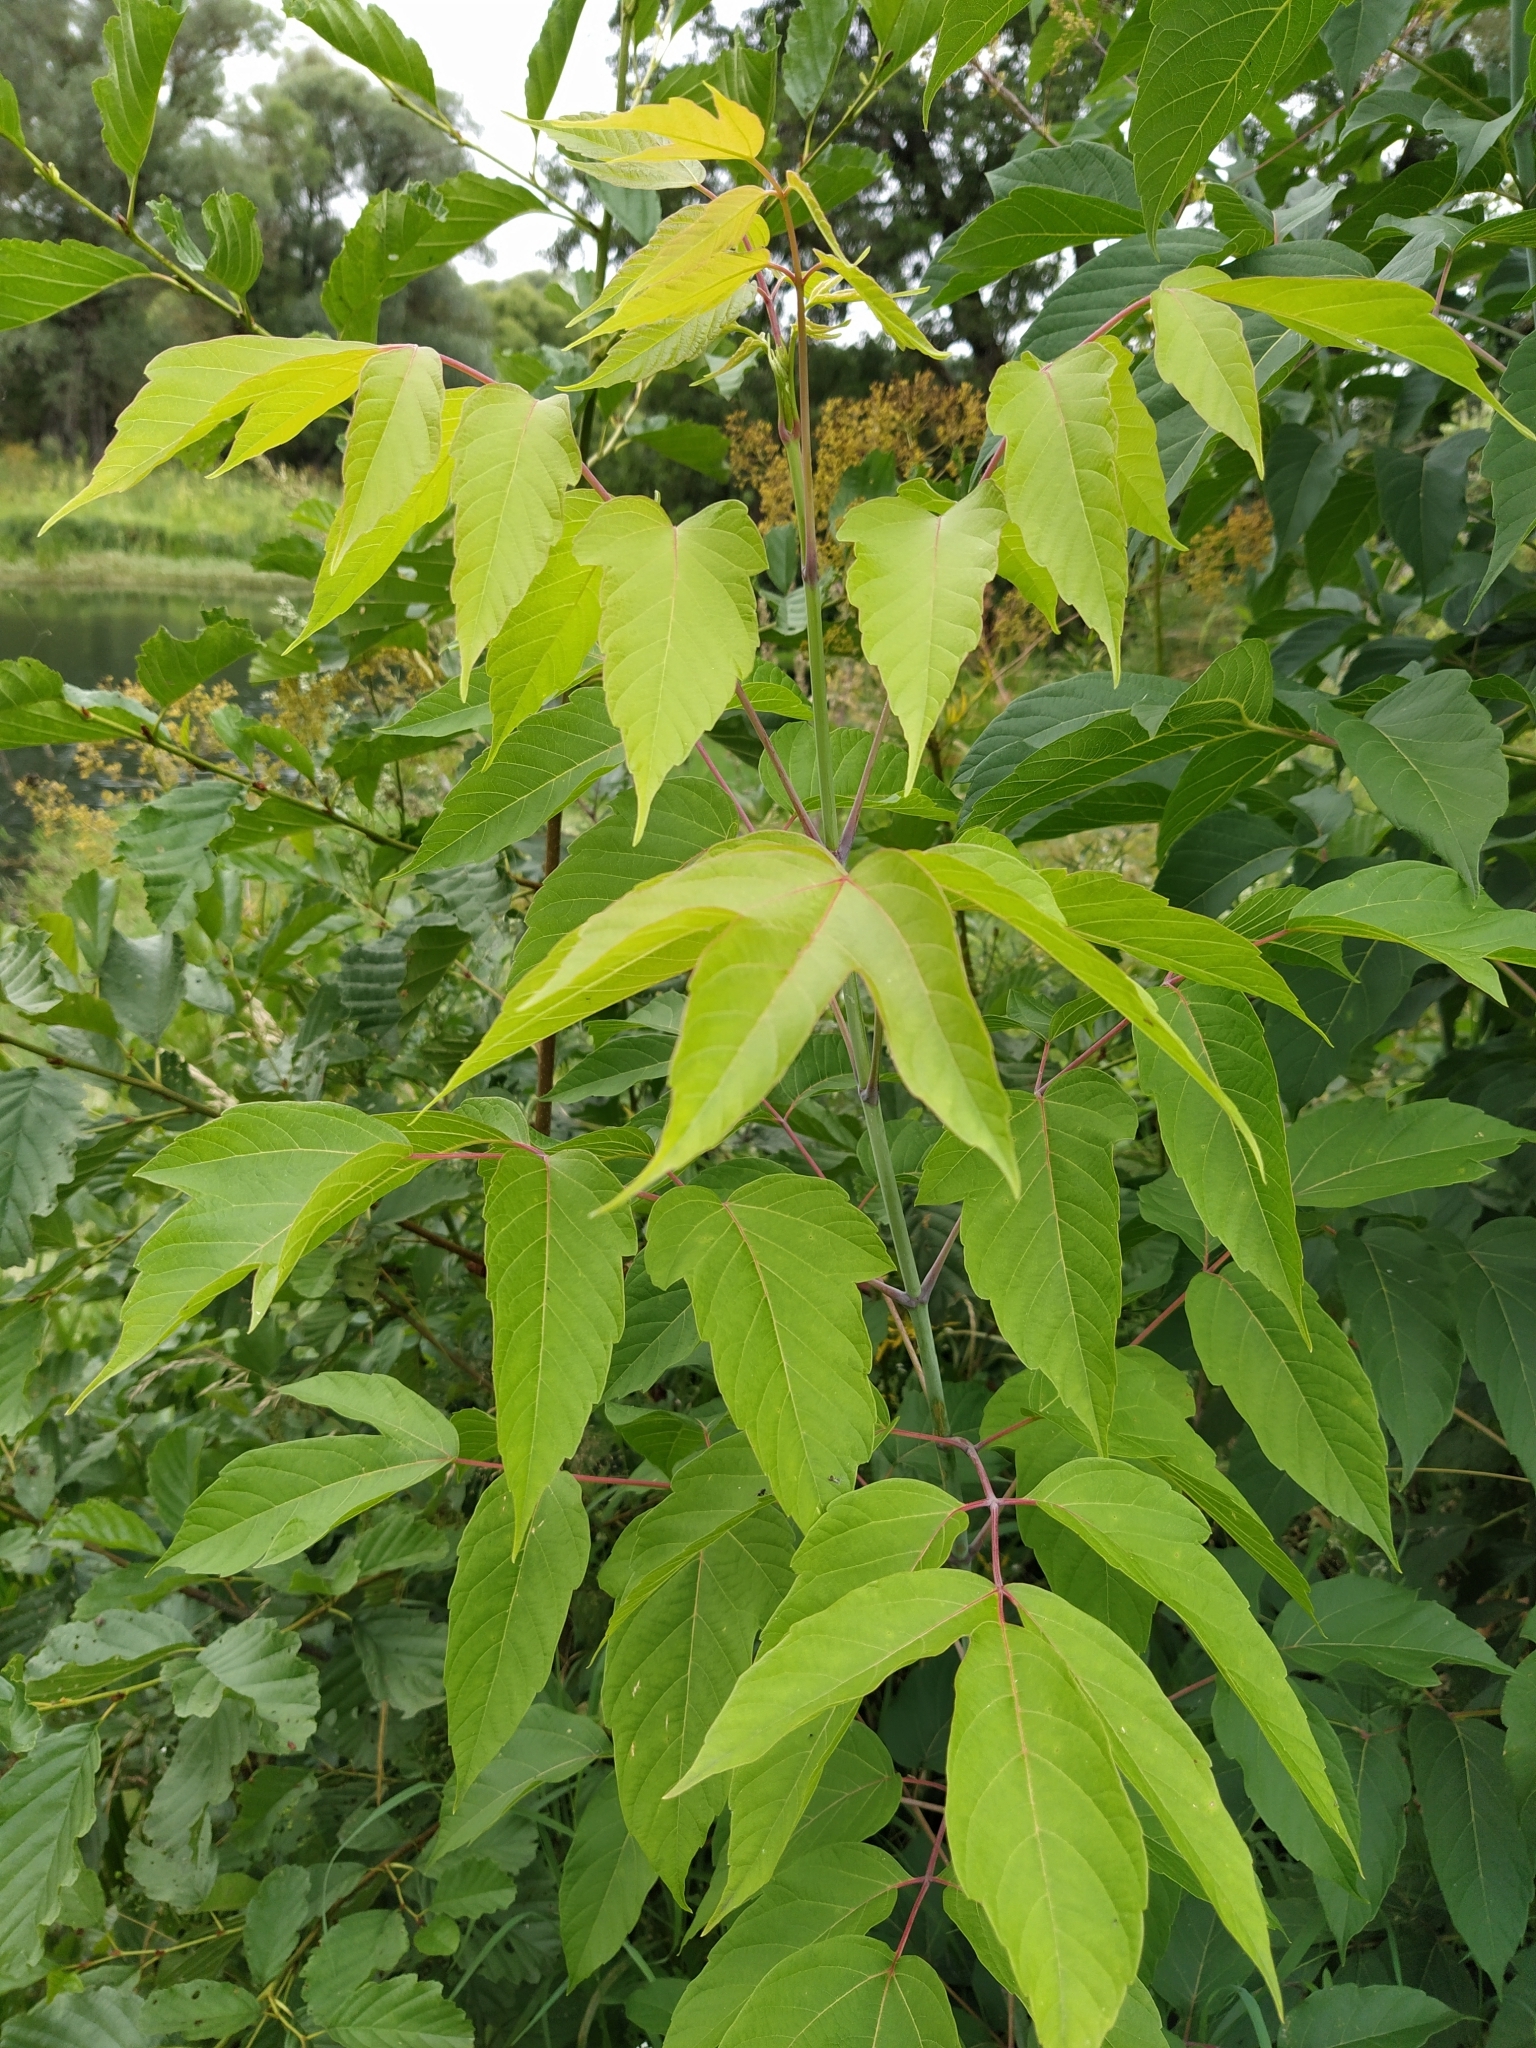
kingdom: Plantae
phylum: Tracheophyta
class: Magnoliopsida
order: Sapindales
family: Sapindaceae
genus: Acer
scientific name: Acer negundo
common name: Ashleaf maple
